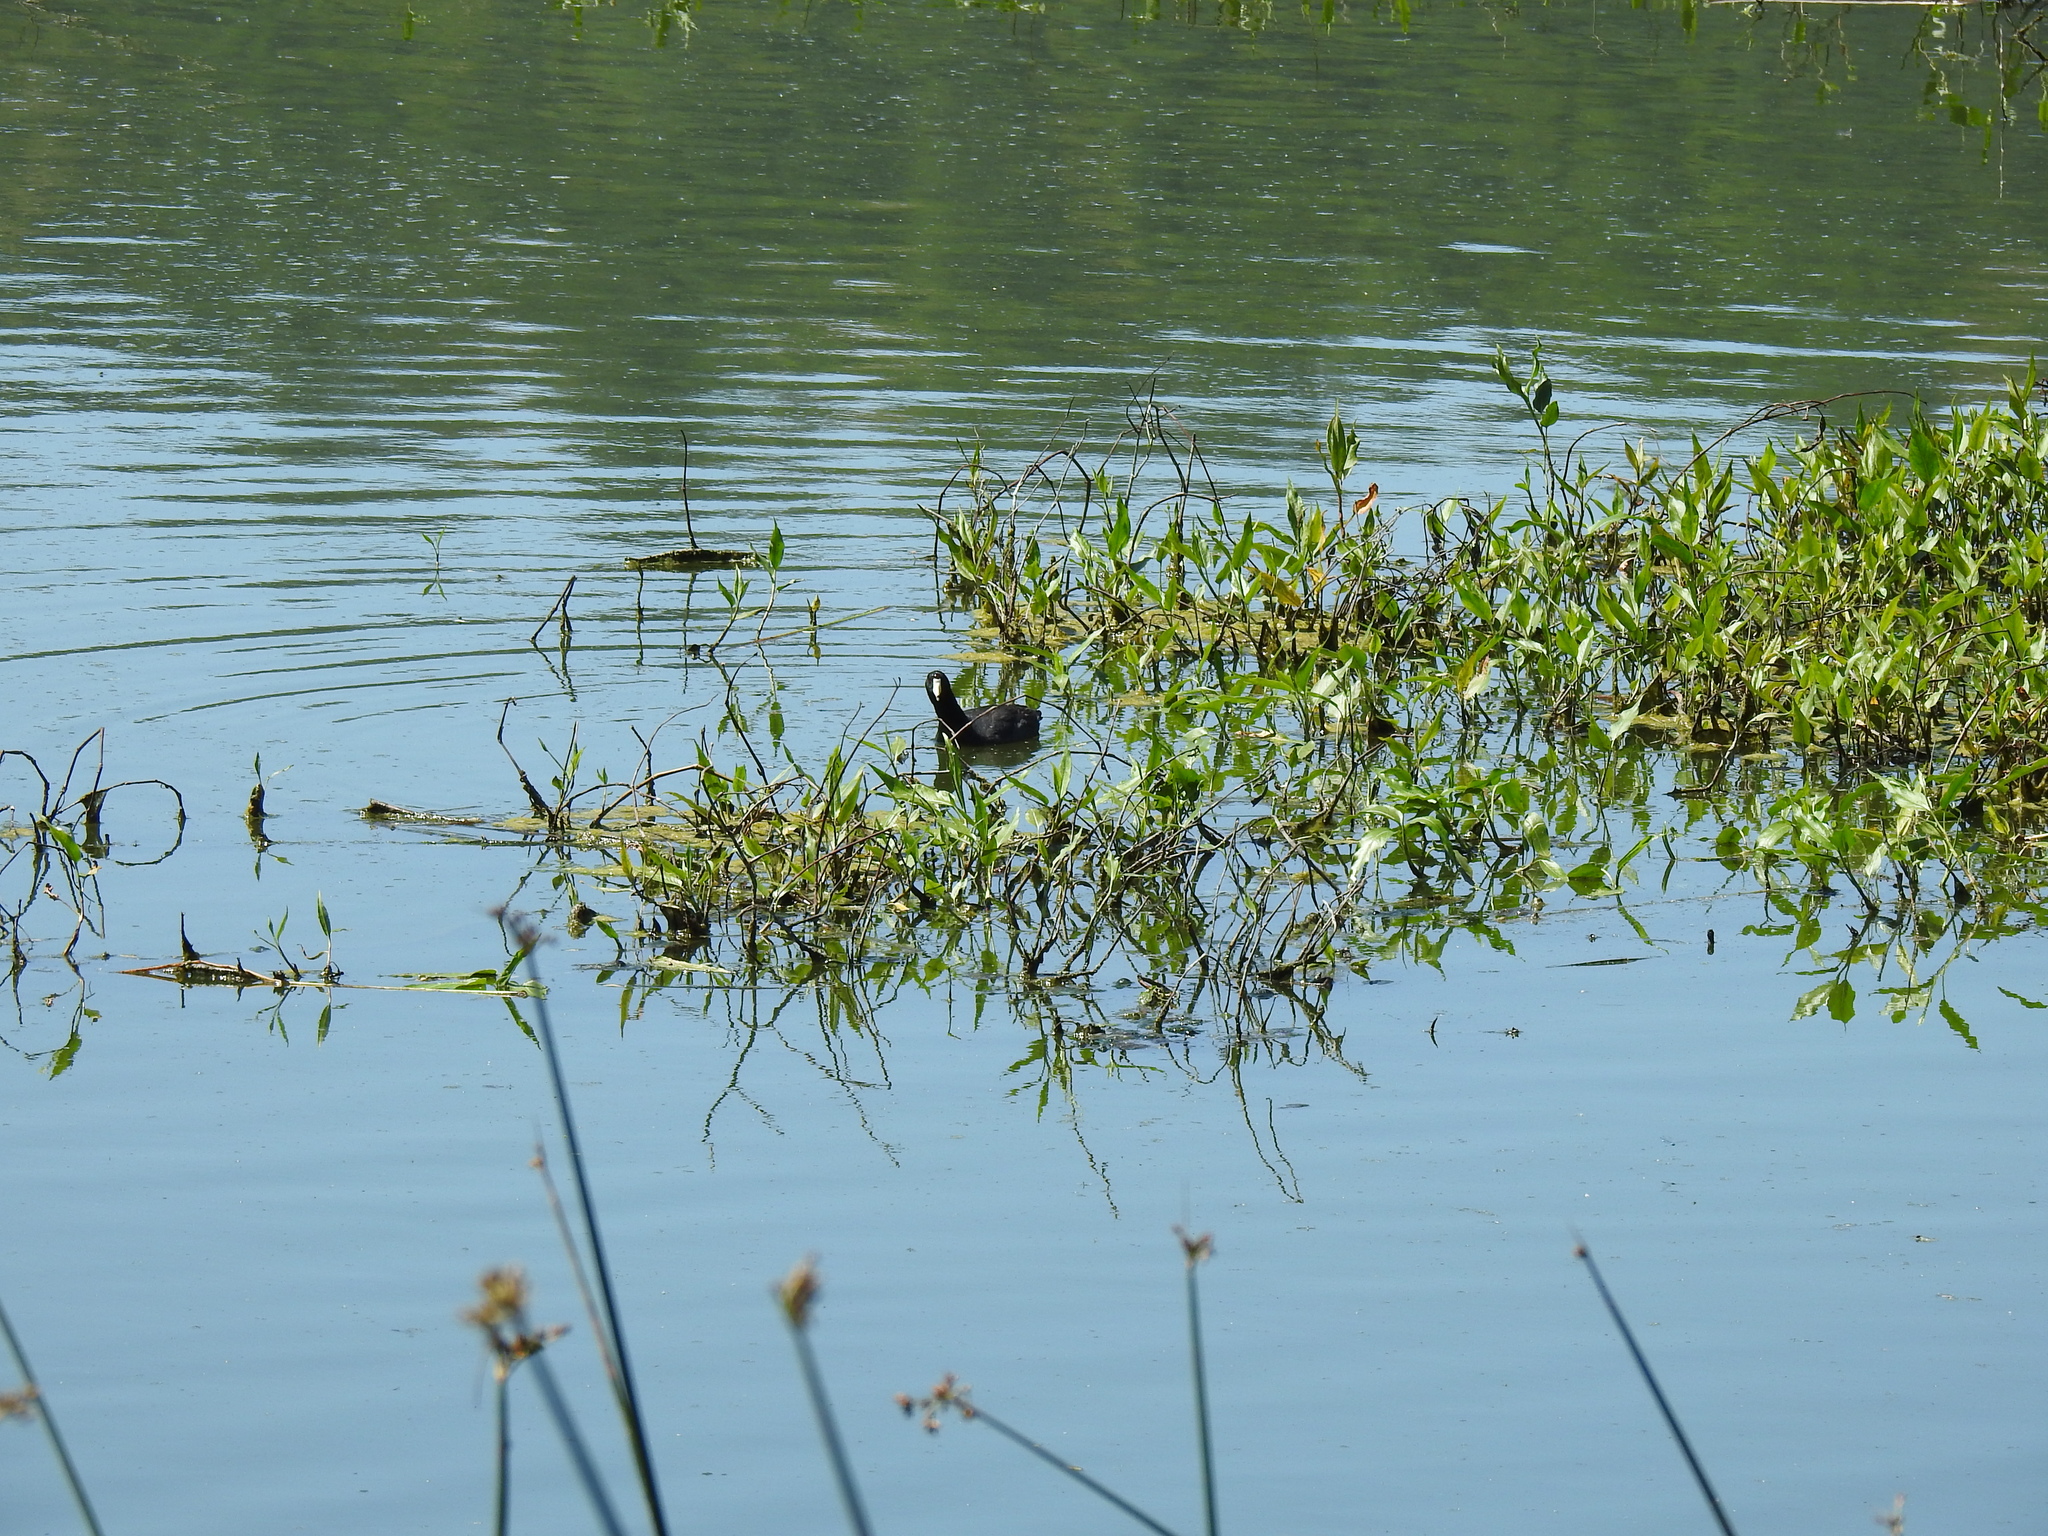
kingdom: Animalia
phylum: Chordata
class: Aves
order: Gruiformes
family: Rallidae
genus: Fulica
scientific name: Fulica americana
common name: American coot
